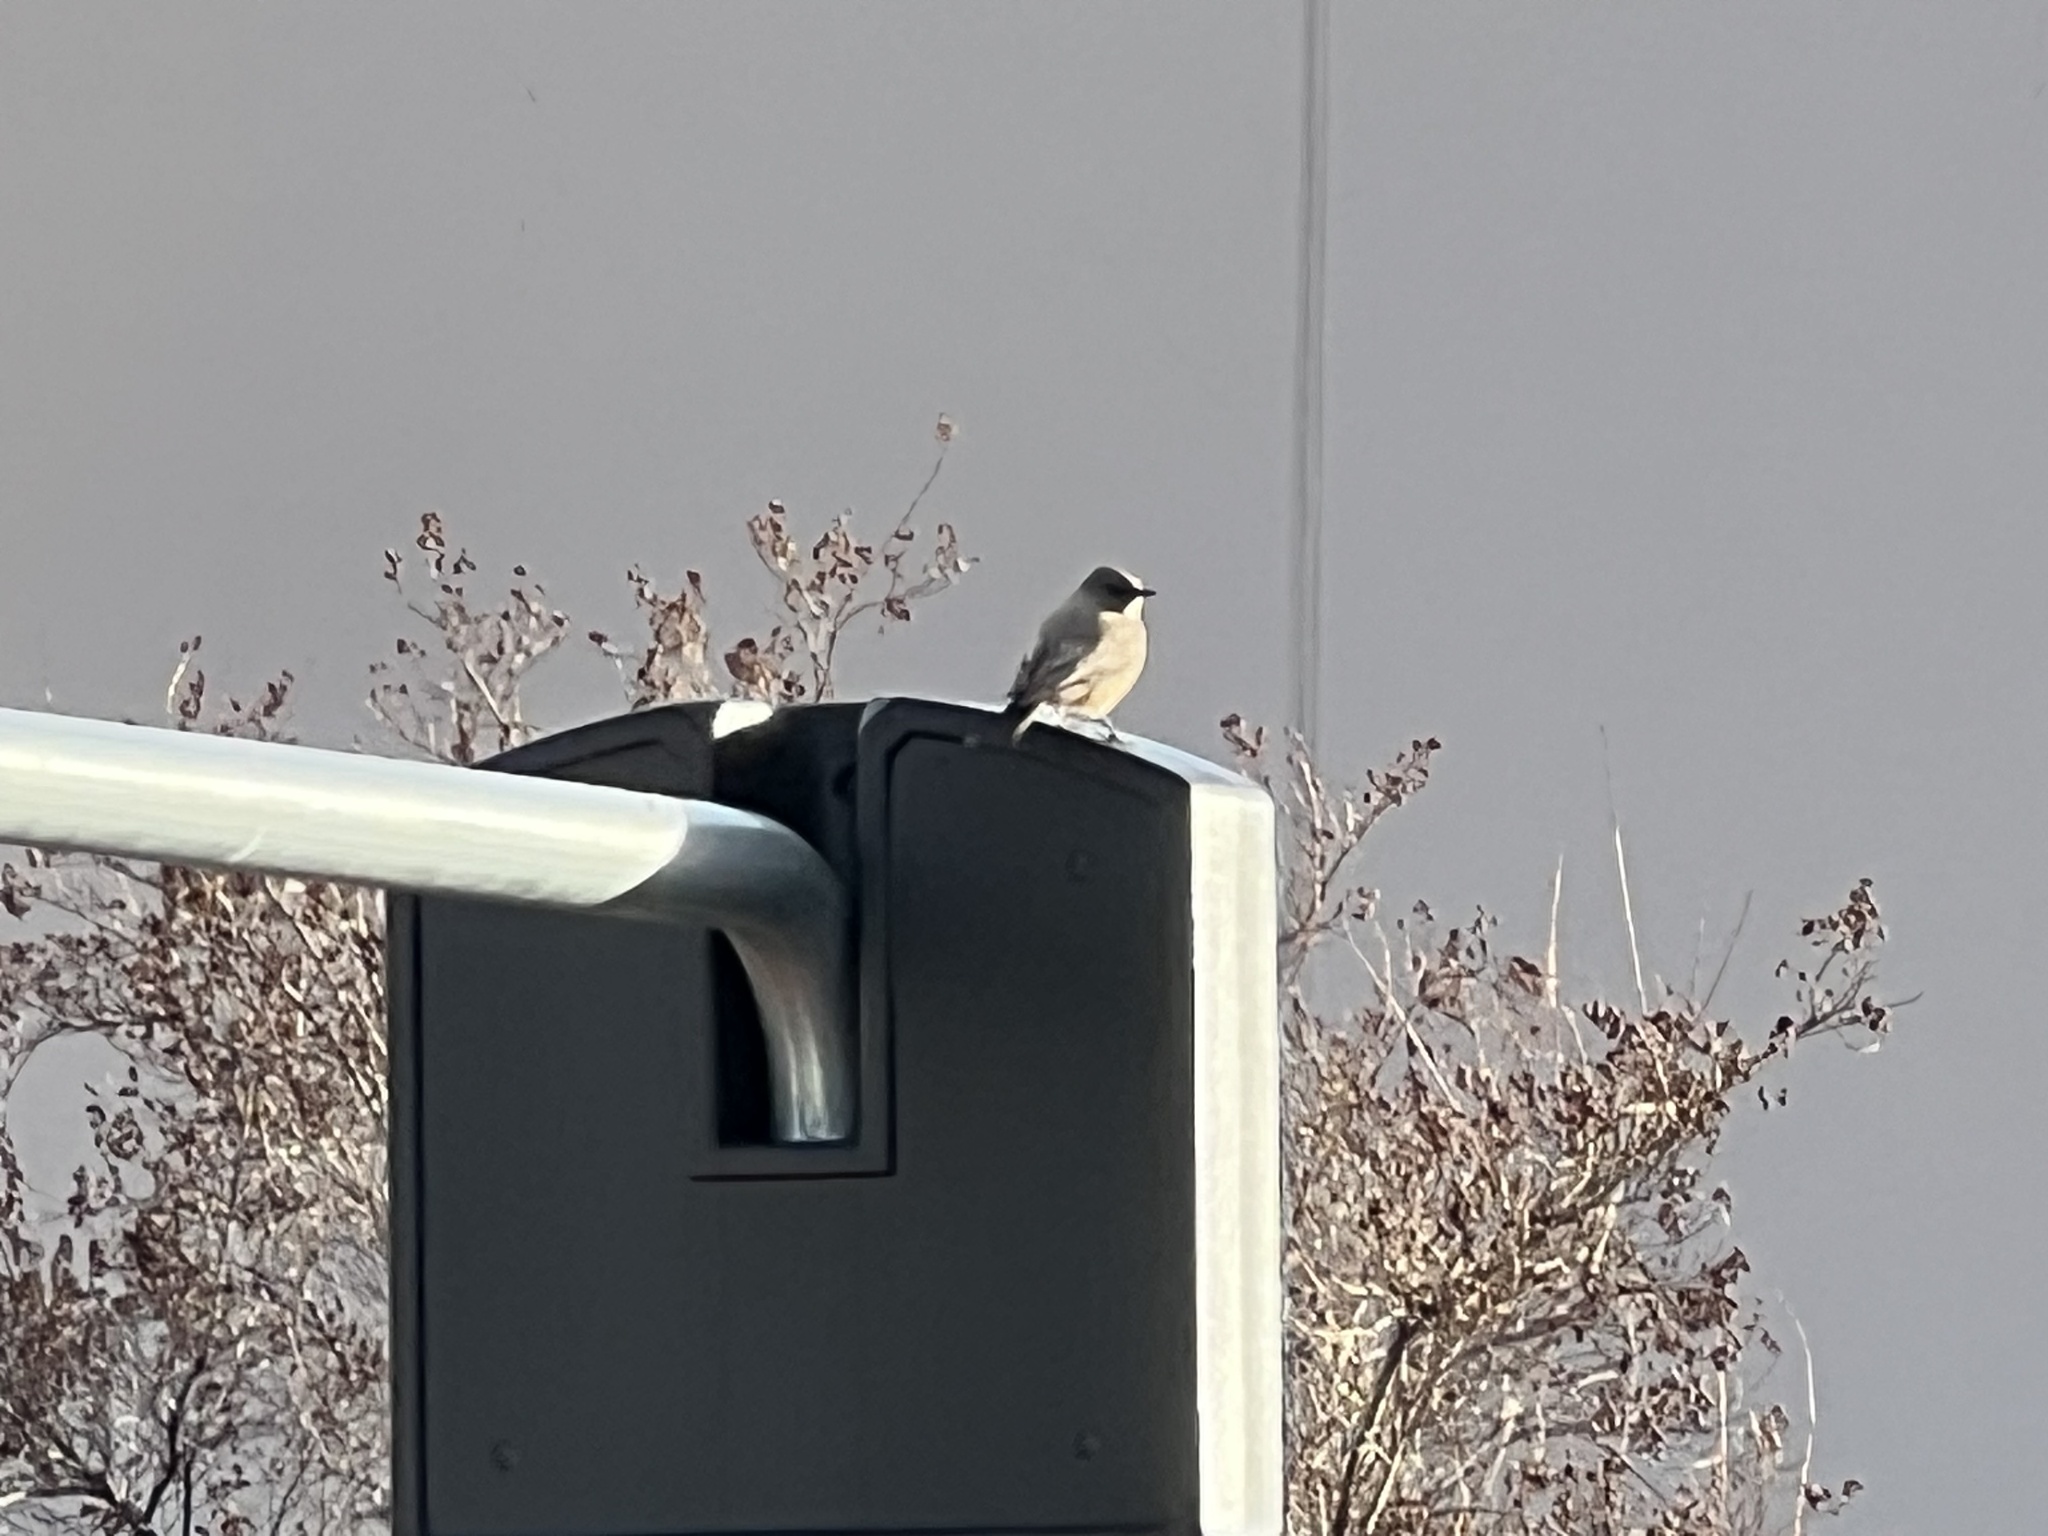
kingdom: Animalia
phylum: Chordata
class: Aves
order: Passeriformes
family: Tyrannidae
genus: Sayornis
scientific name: Sayornis saya
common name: Say's phoebe
